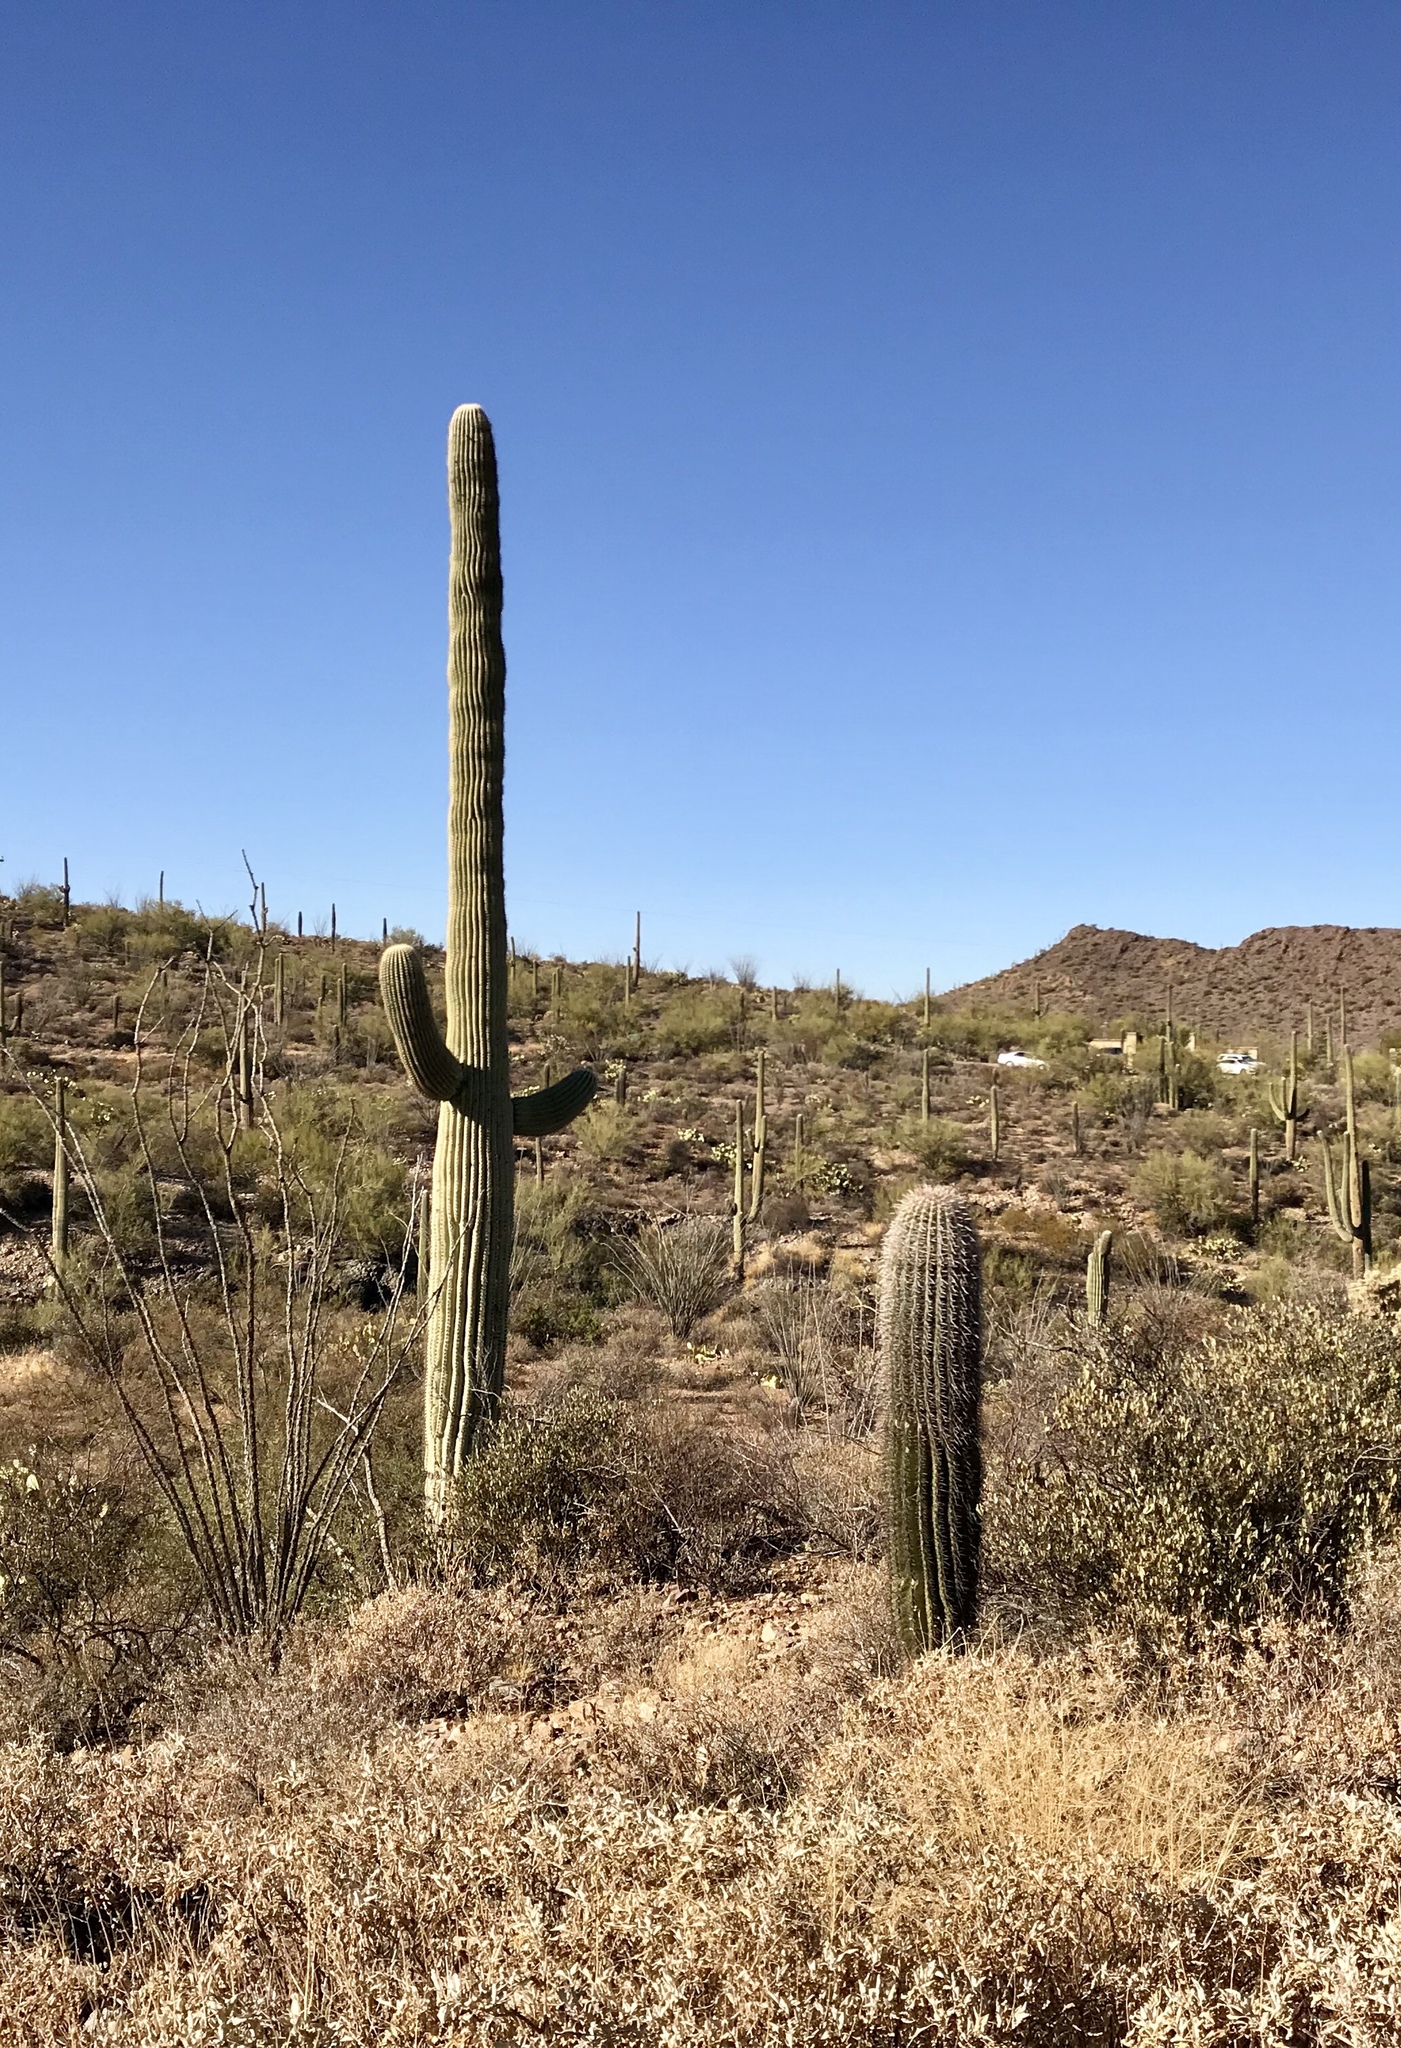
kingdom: Plantae
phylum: Tracheophyta
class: Magnoliopsida
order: Caryophyllales
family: Cactaceae
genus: Carnegiea
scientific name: Carnegiea gigantea
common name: Saguaro
